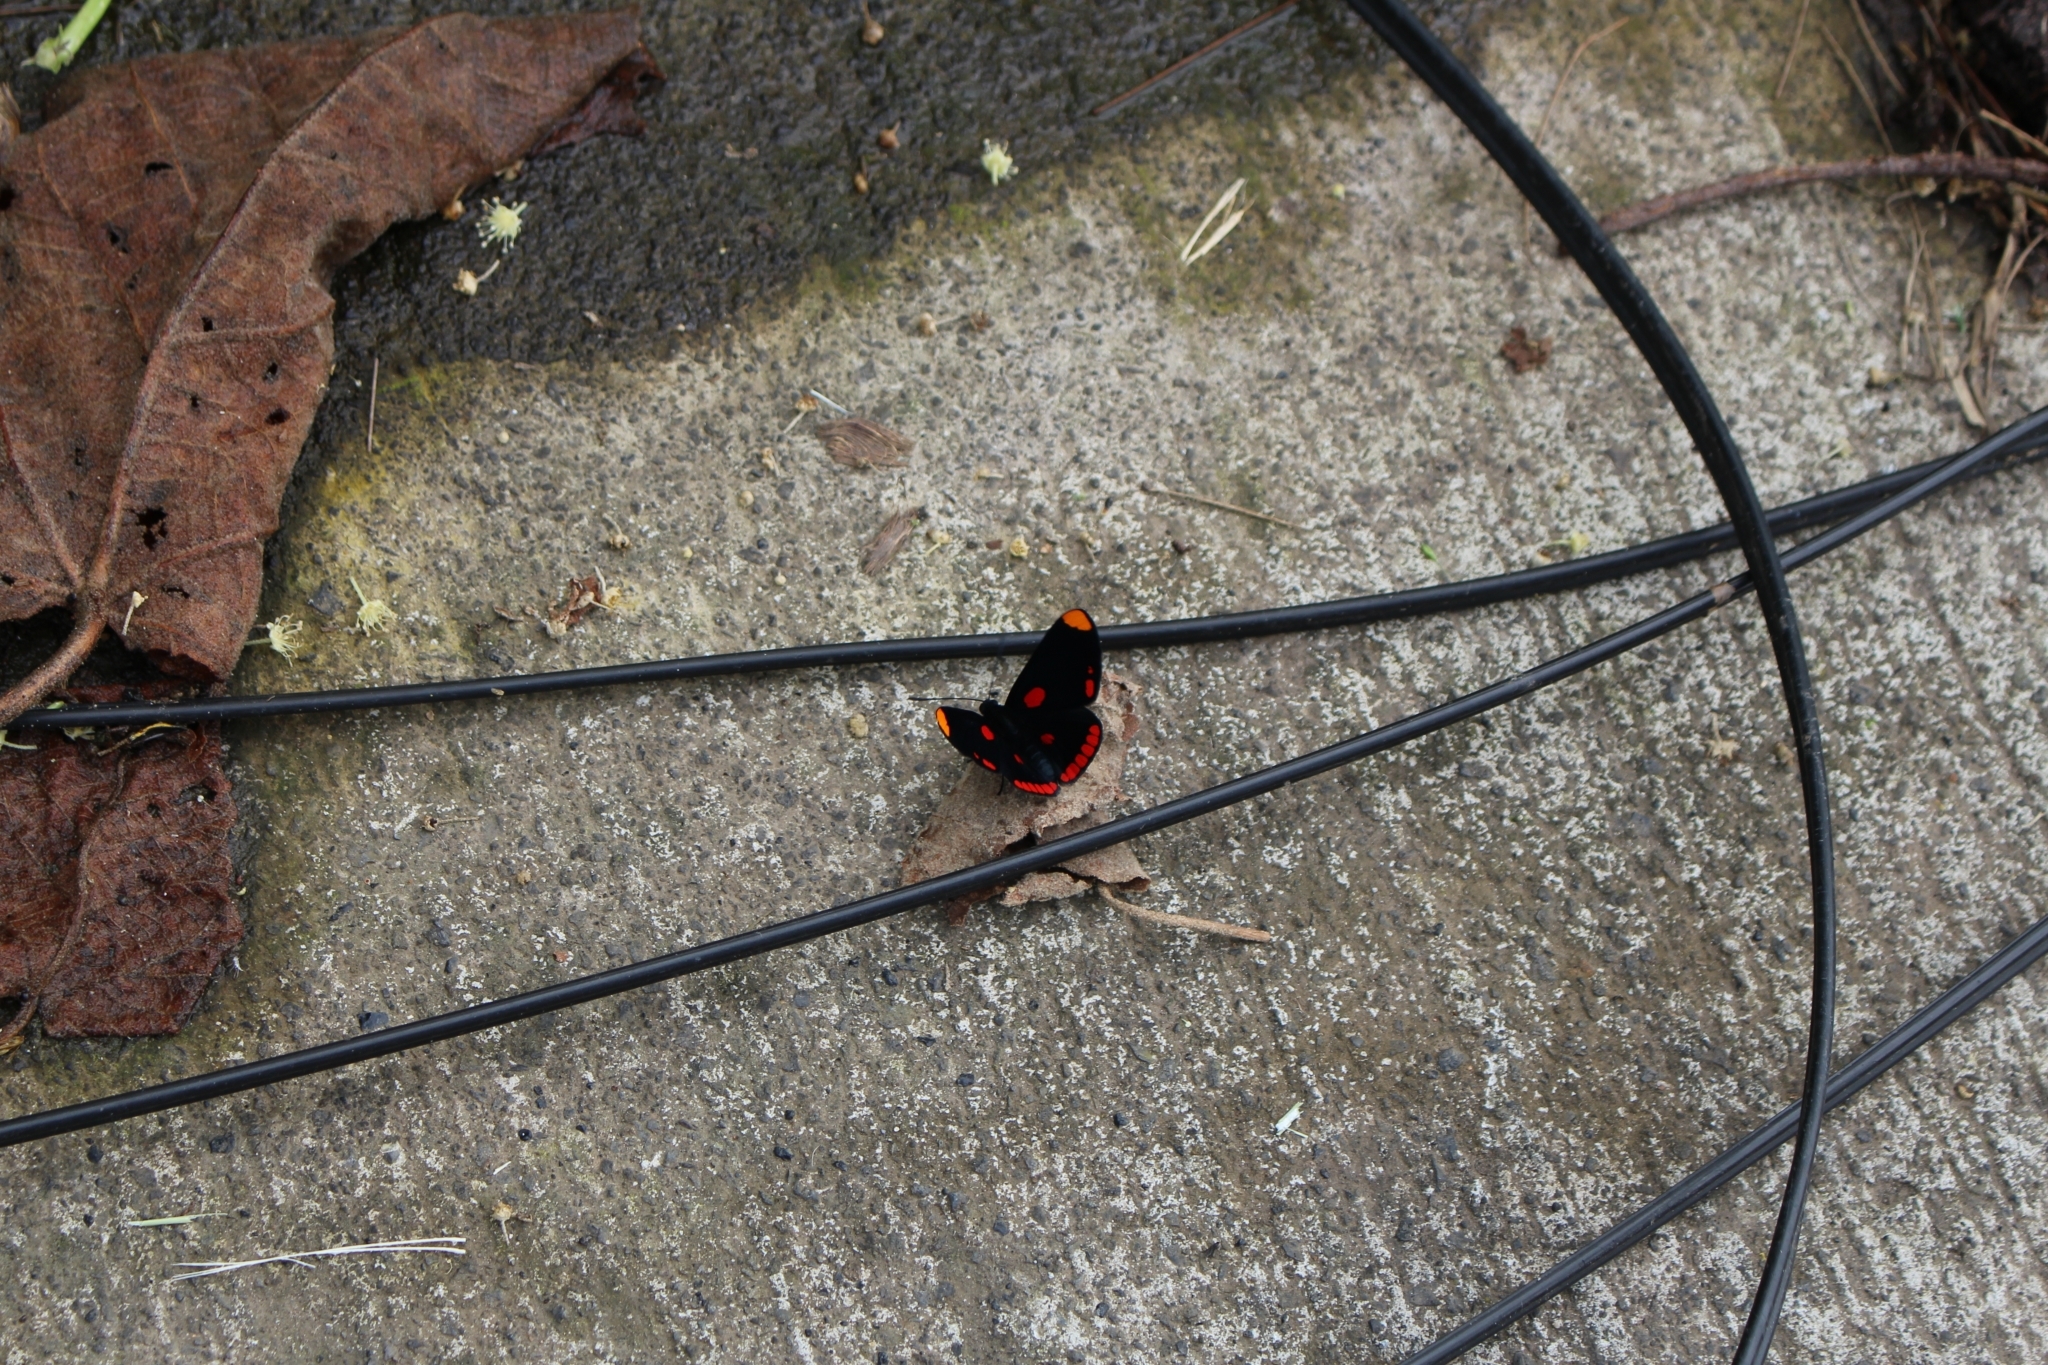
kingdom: Animalia
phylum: Arthropoda
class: Insecta
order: Lepidoptera
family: Lycaenidae
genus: Melanis
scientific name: Melanis pixe
